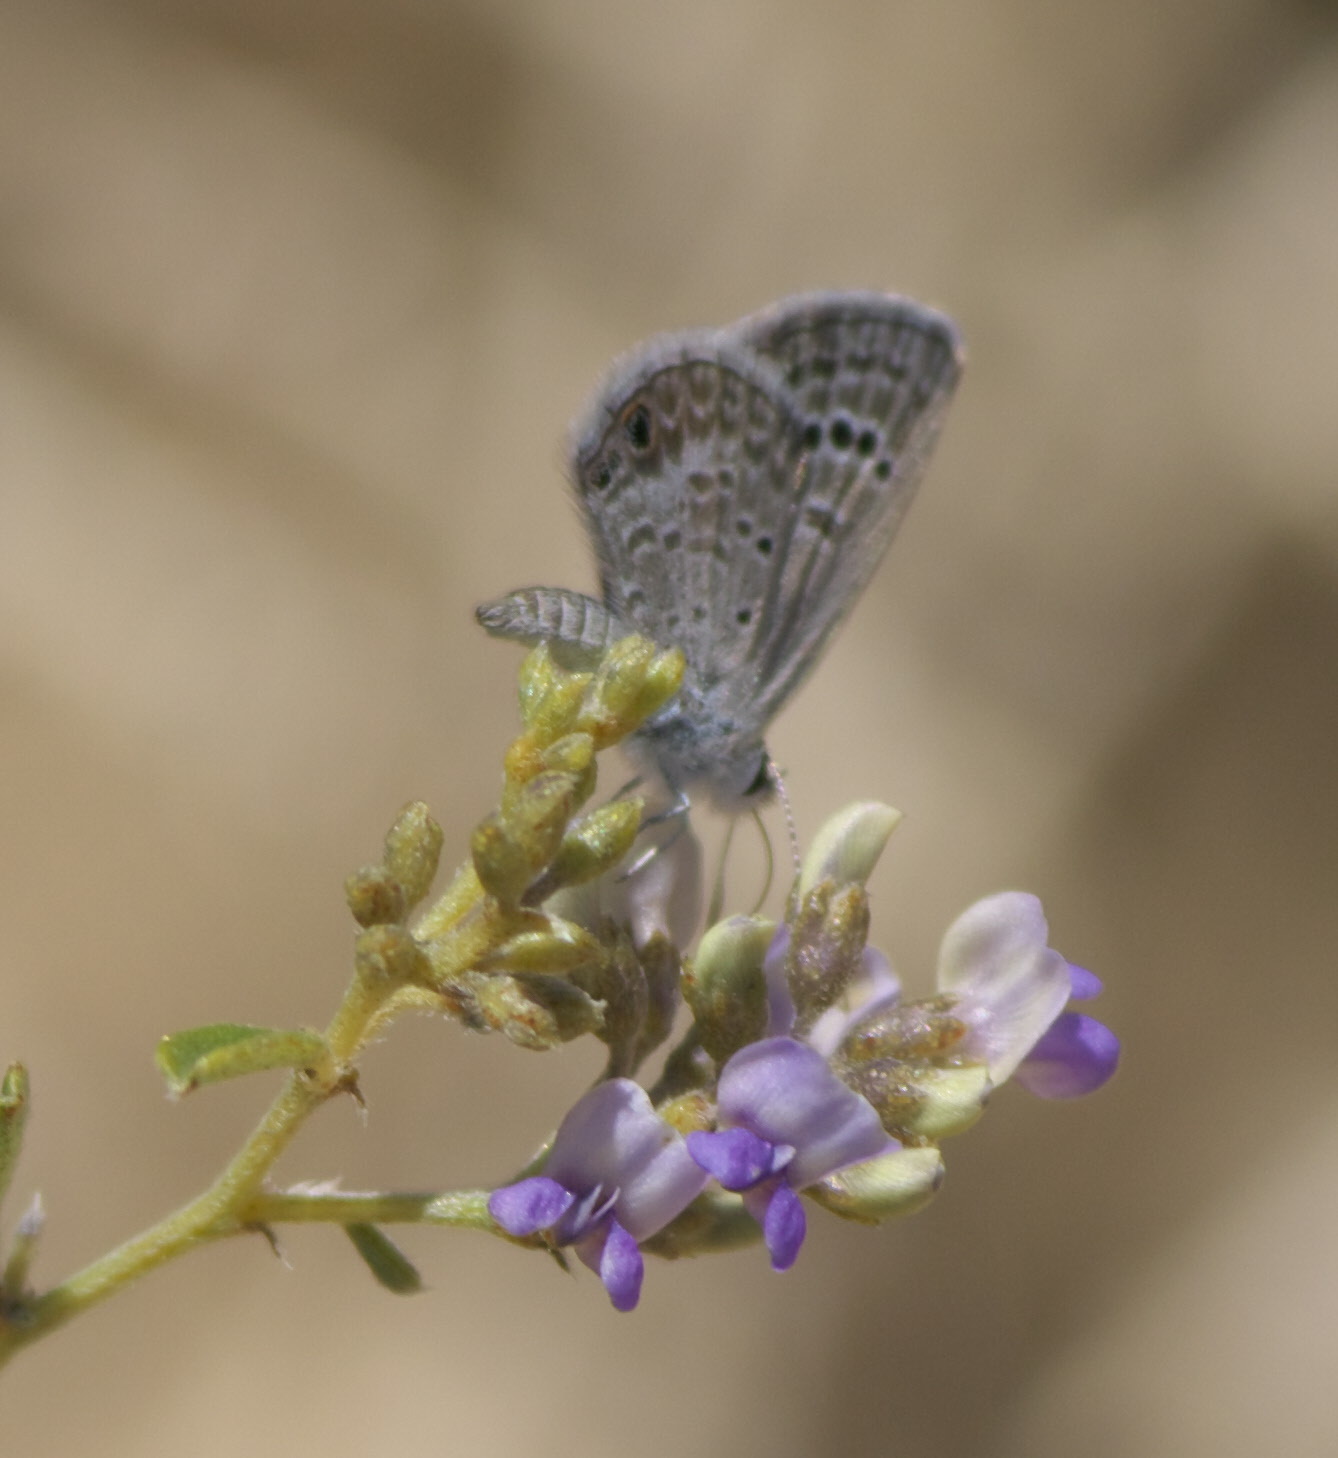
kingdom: Animalia
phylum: Arthropoda
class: Insecta
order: Lepidoptera
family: Lycaenidae
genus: Echinargus
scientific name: Echinargus isola
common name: Reakirt's blue
